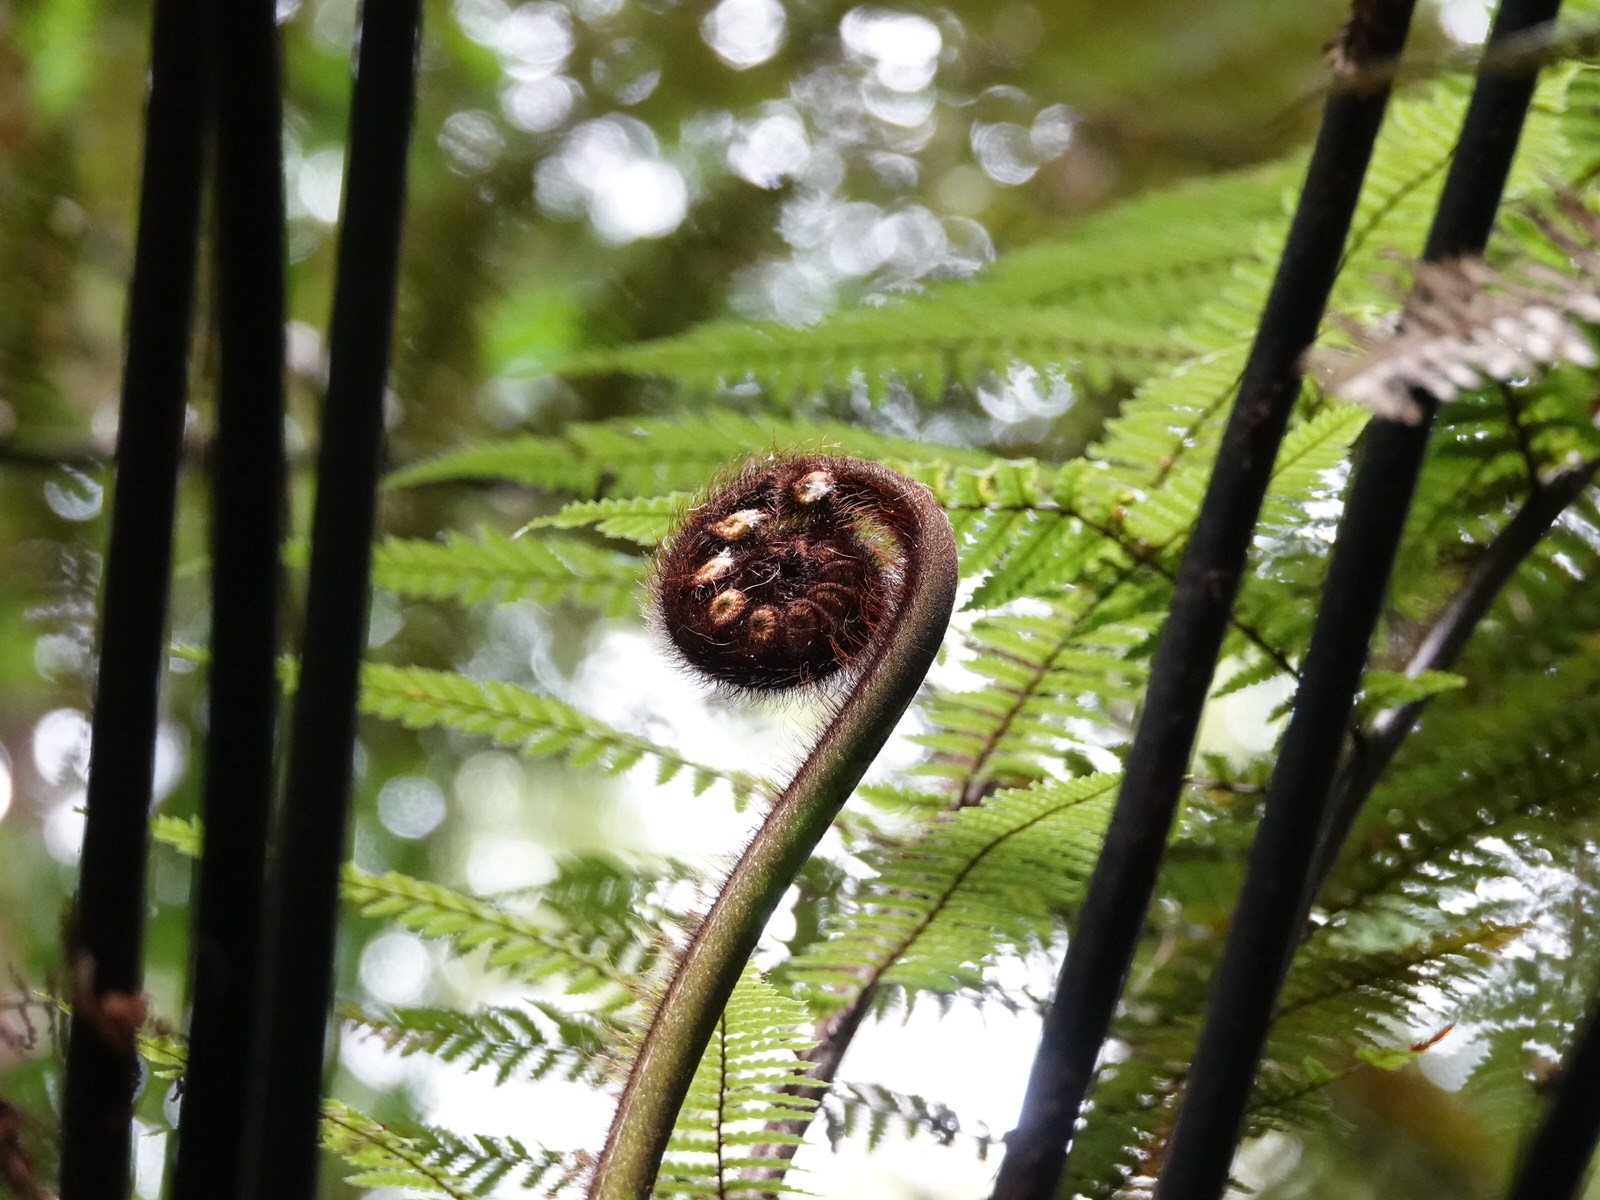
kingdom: Plantae
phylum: Tracheophyta
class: Polypodiopsida
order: Cyatheales
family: Dicksoniaceae
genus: Dicksonia
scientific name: Dicksonia squarrosa
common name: Hard treefern
